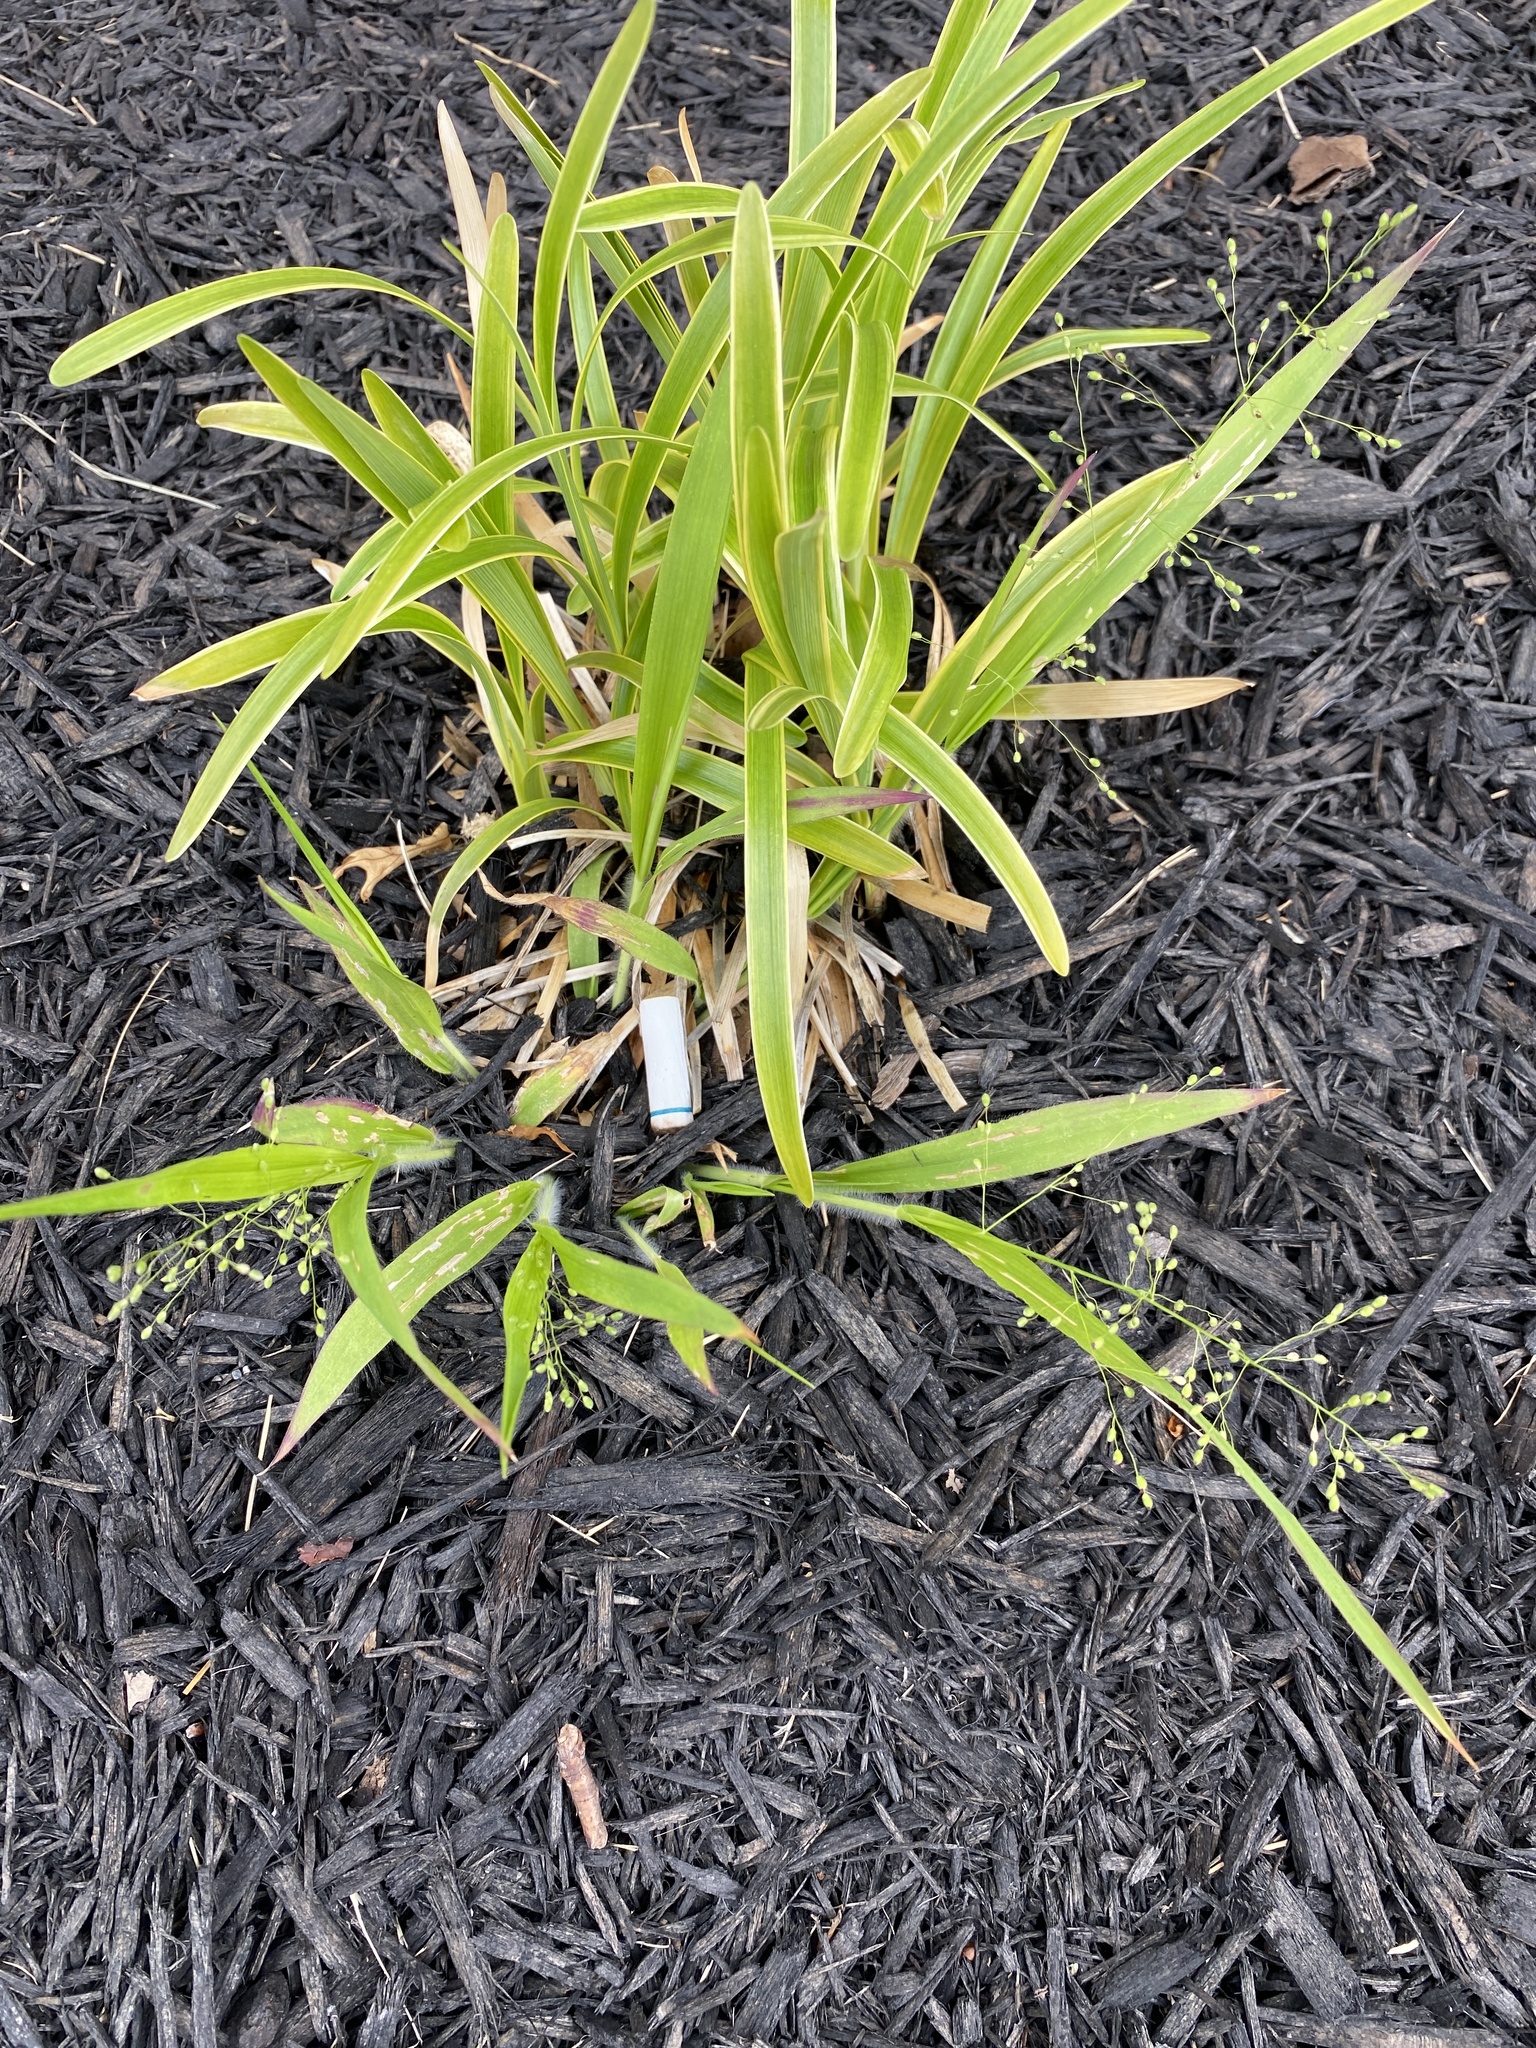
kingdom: Plantae
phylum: Tracheophyta
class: Liliopsida
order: Poales
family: Poaceae
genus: Dichanthelium
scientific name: Dichanthelium laxiflorum
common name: Soft-tuft panic grass
